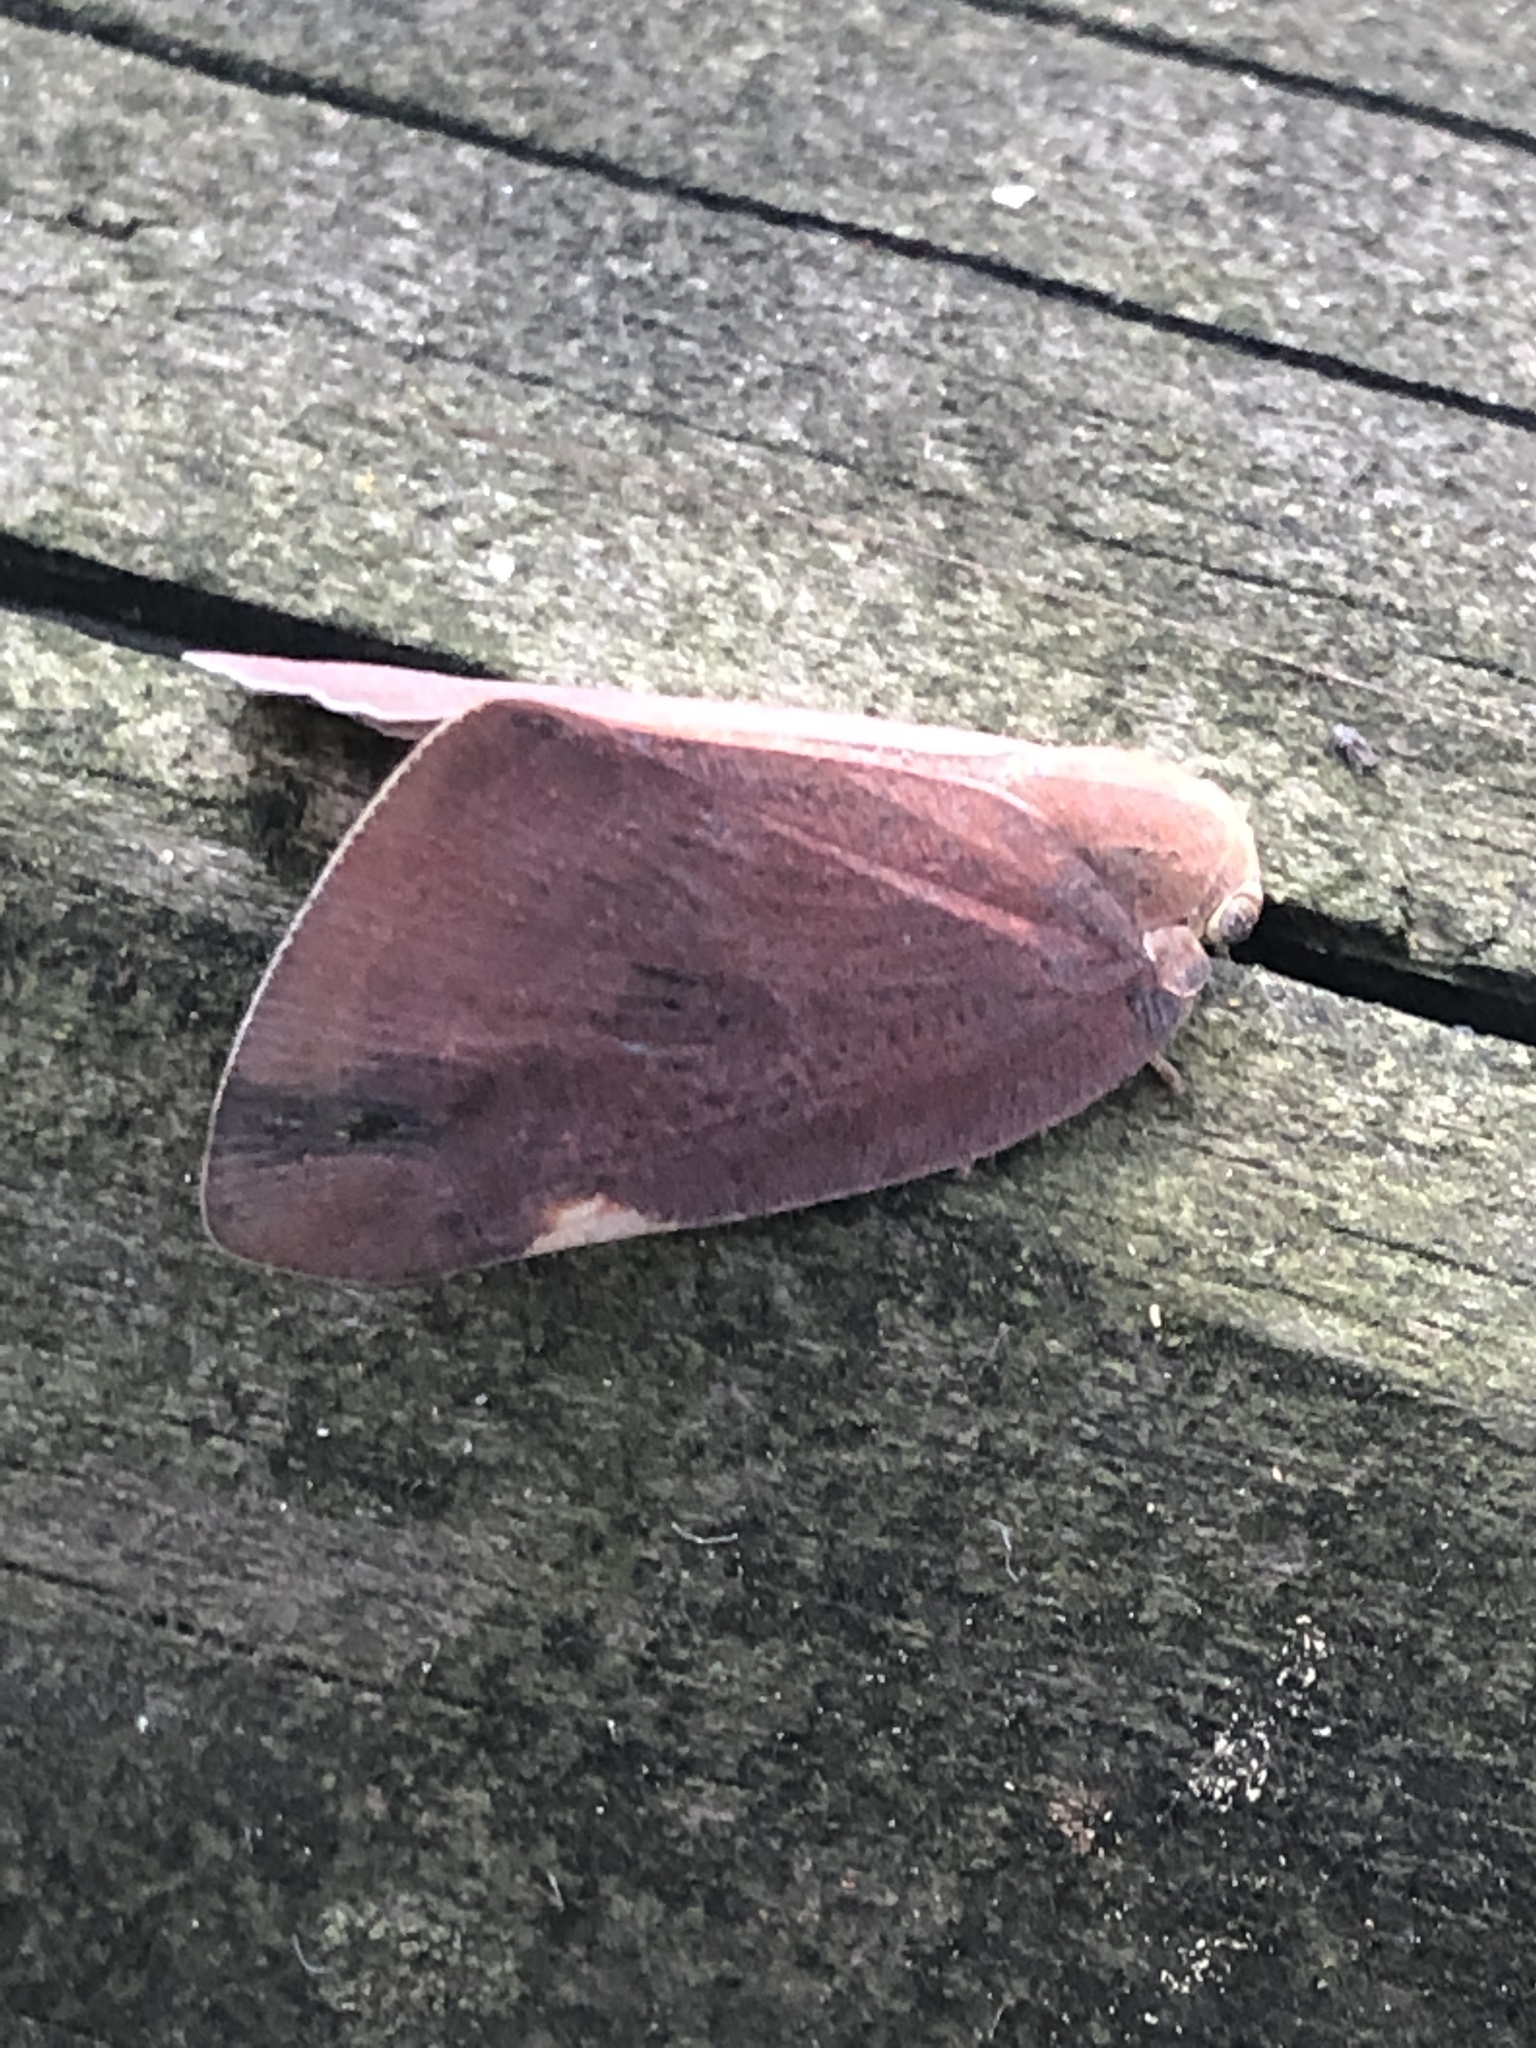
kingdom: Animalia
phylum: Arthropoda
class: Insecta
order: Hemiptera
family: Ricaniidae
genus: Ricanula
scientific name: Ricanula sublimata
